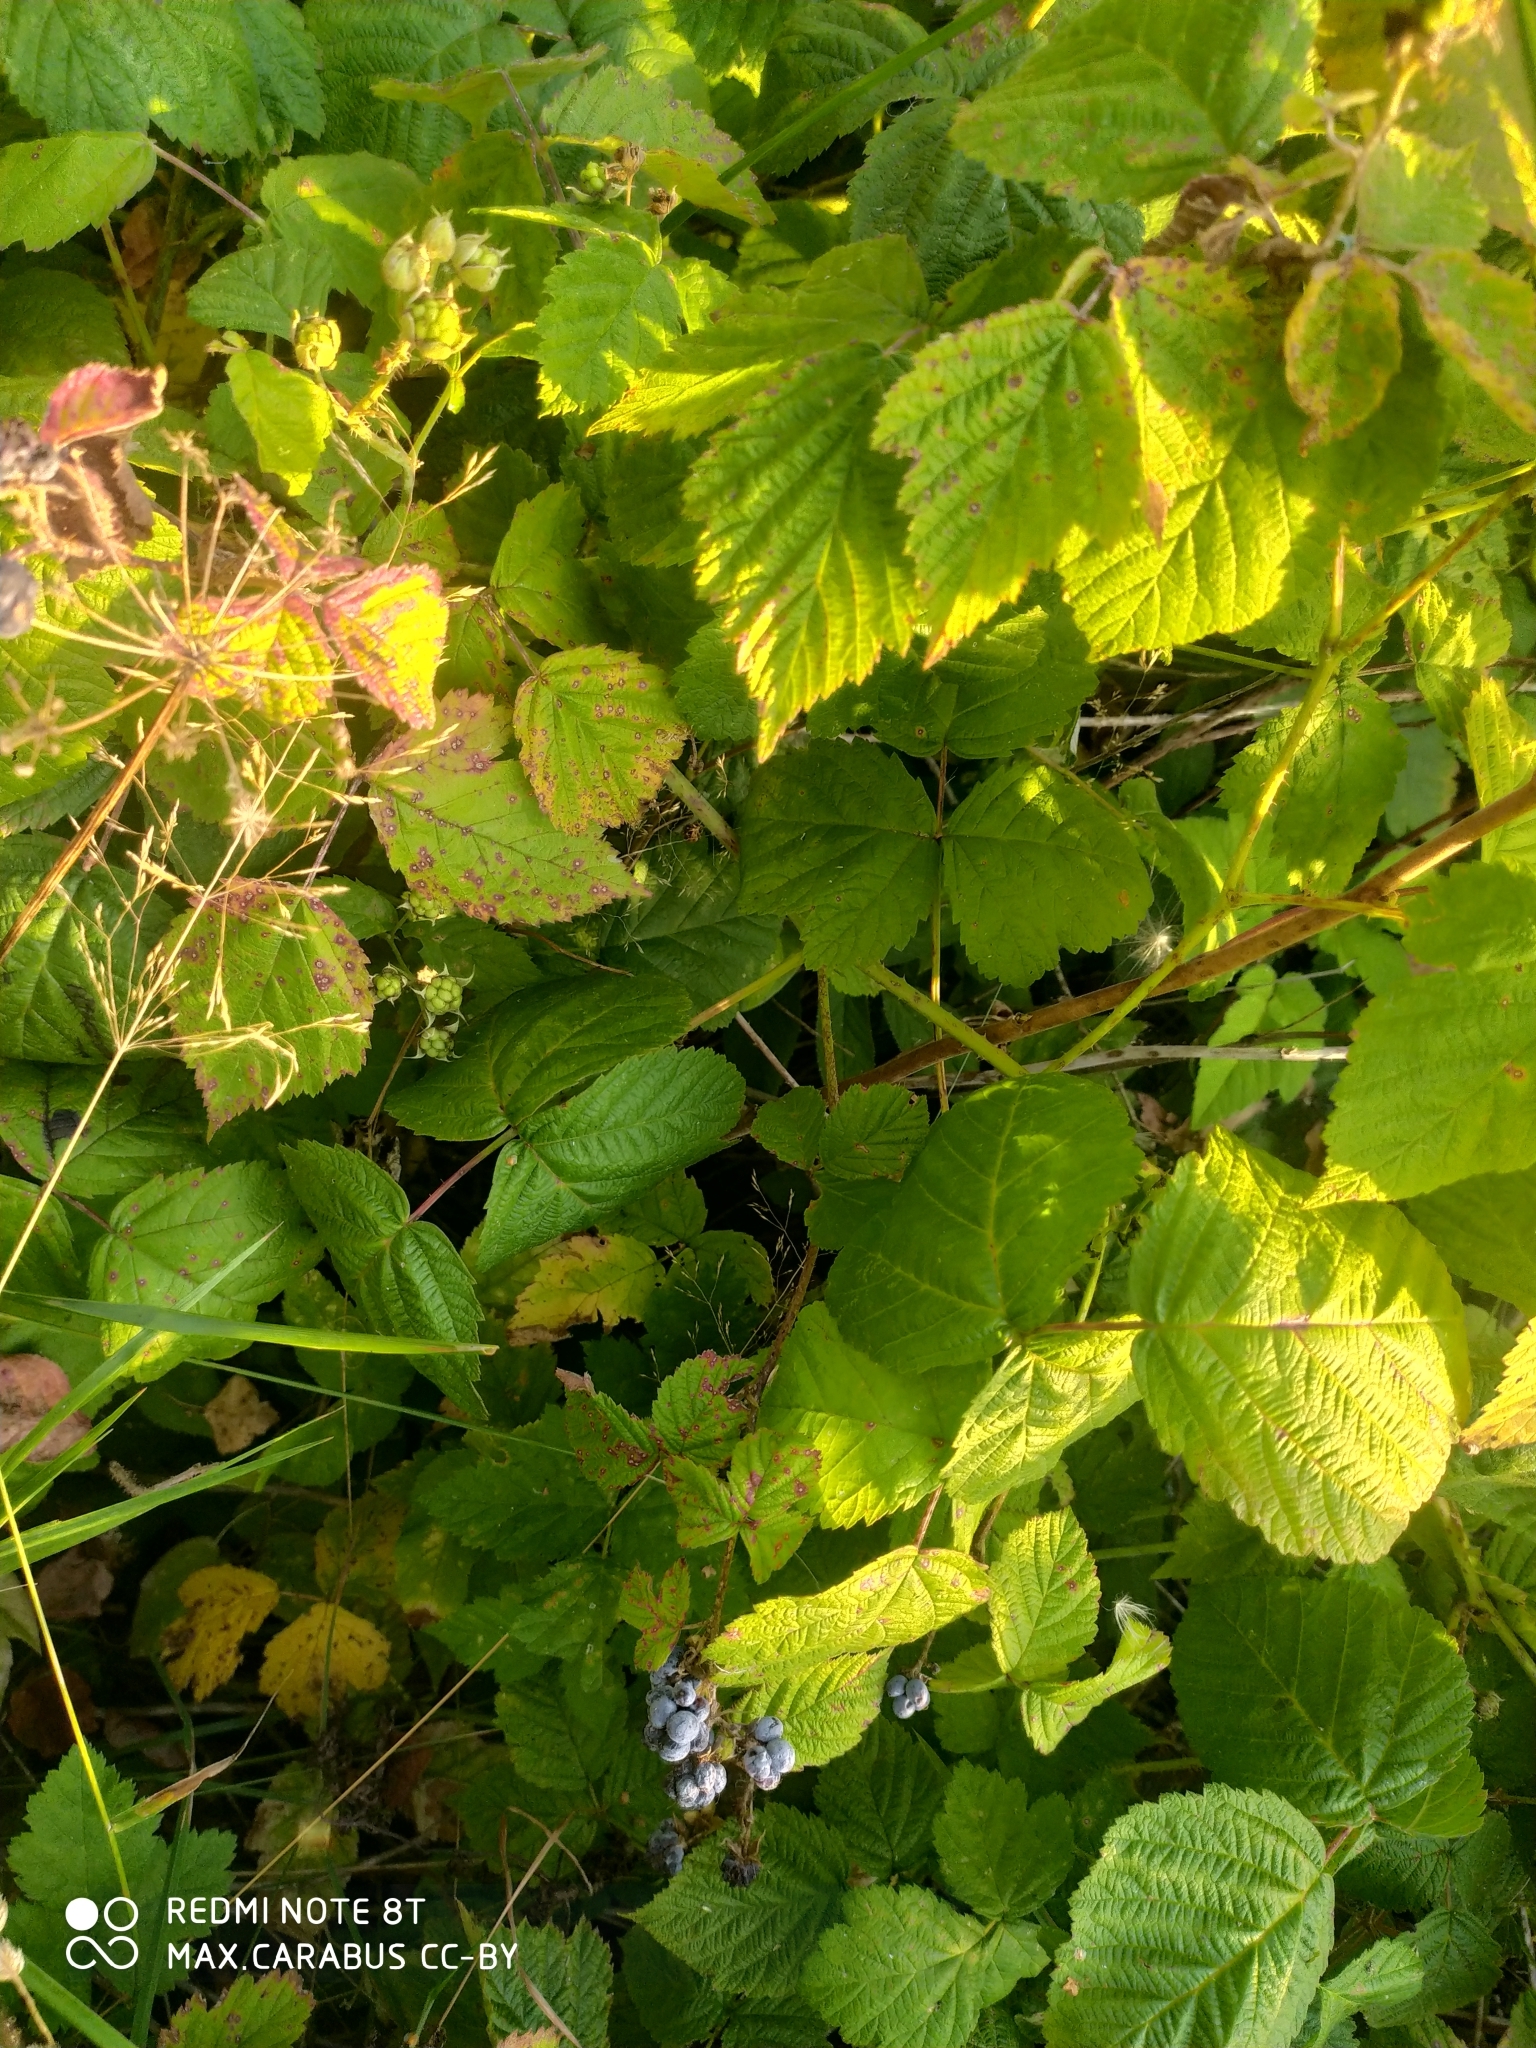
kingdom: Plantae
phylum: Tracheophyta
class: Magnoliopsida
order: Rosales
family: Rosaceae
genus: Rubus
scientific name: Rubus caesius
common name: Dewberry
